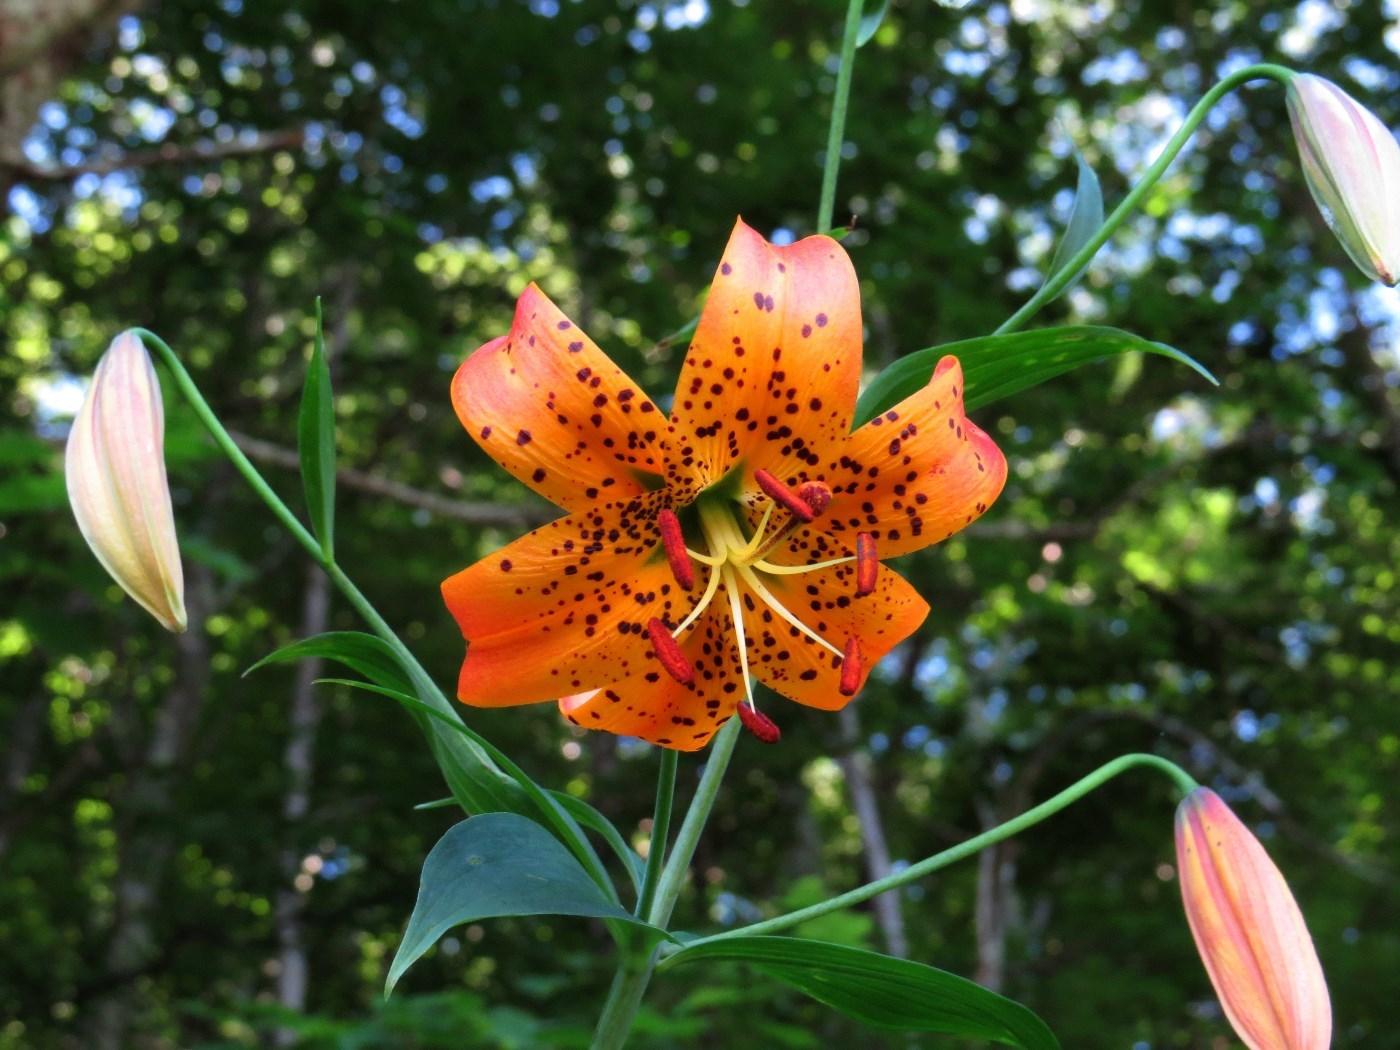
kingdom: Plantae
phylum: Tracheophyta
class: Liliopsida
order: Liliales
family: Liliaceae
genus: Lilium
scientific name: Lilium superbum
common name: American turk's-cap lily
